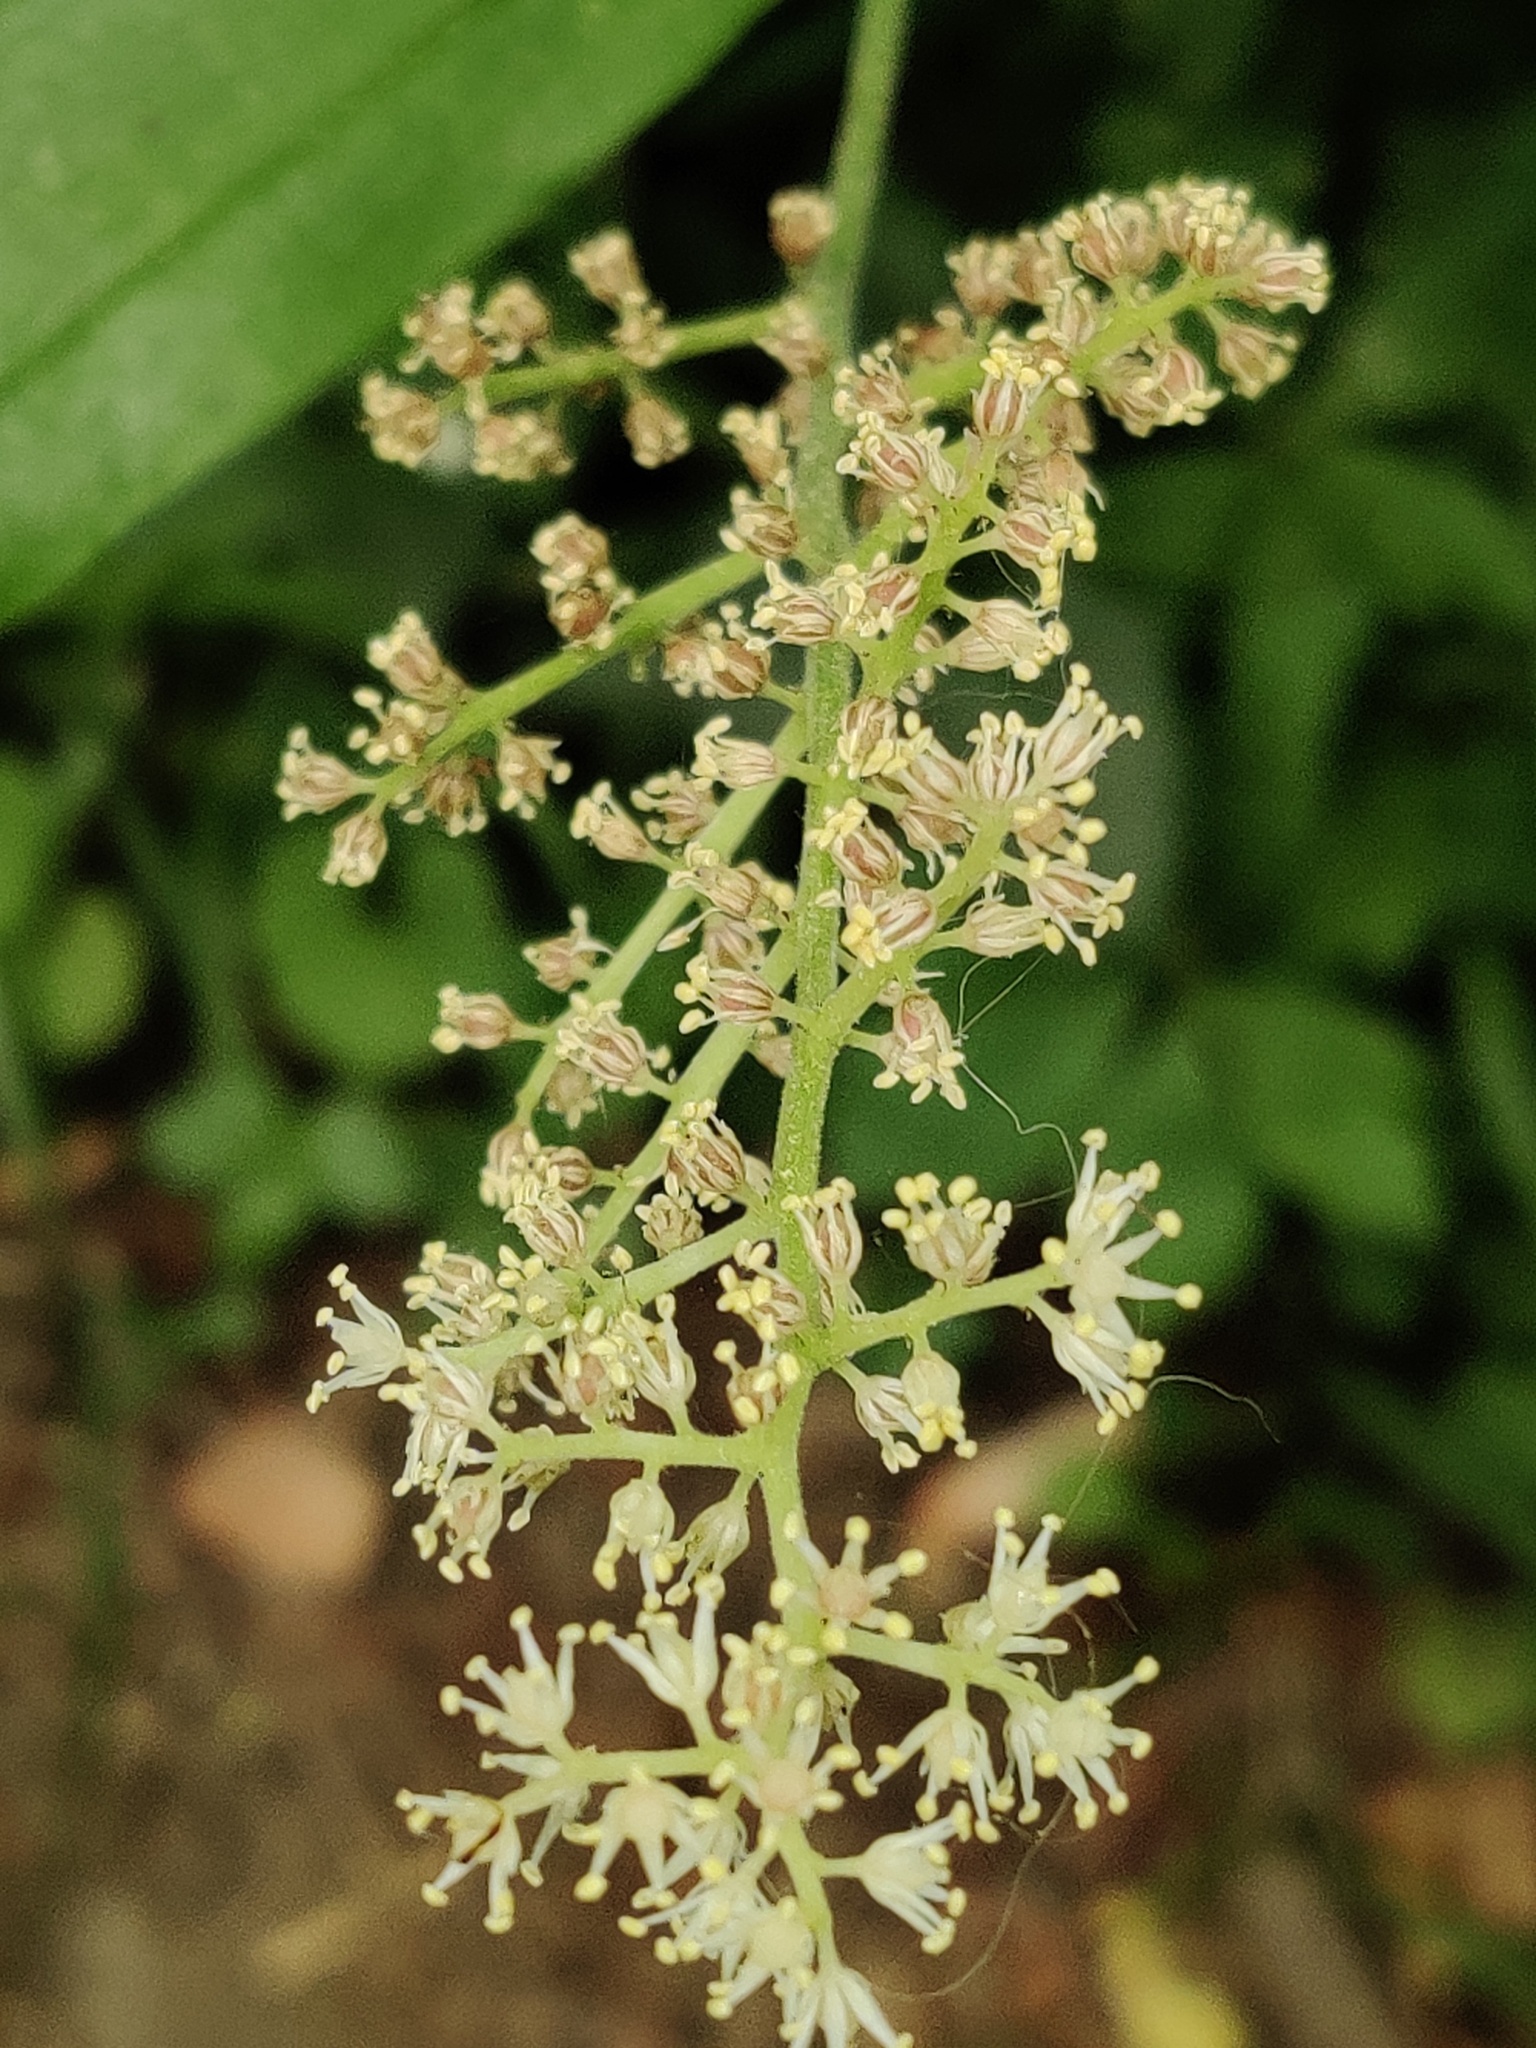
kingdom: Plantae
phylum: Tracheophyta
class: Liliopsida
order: Asparagales
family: Asparagaceae
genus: Maianthemum
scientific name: Maianthemum racemosum
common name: False spikenard
